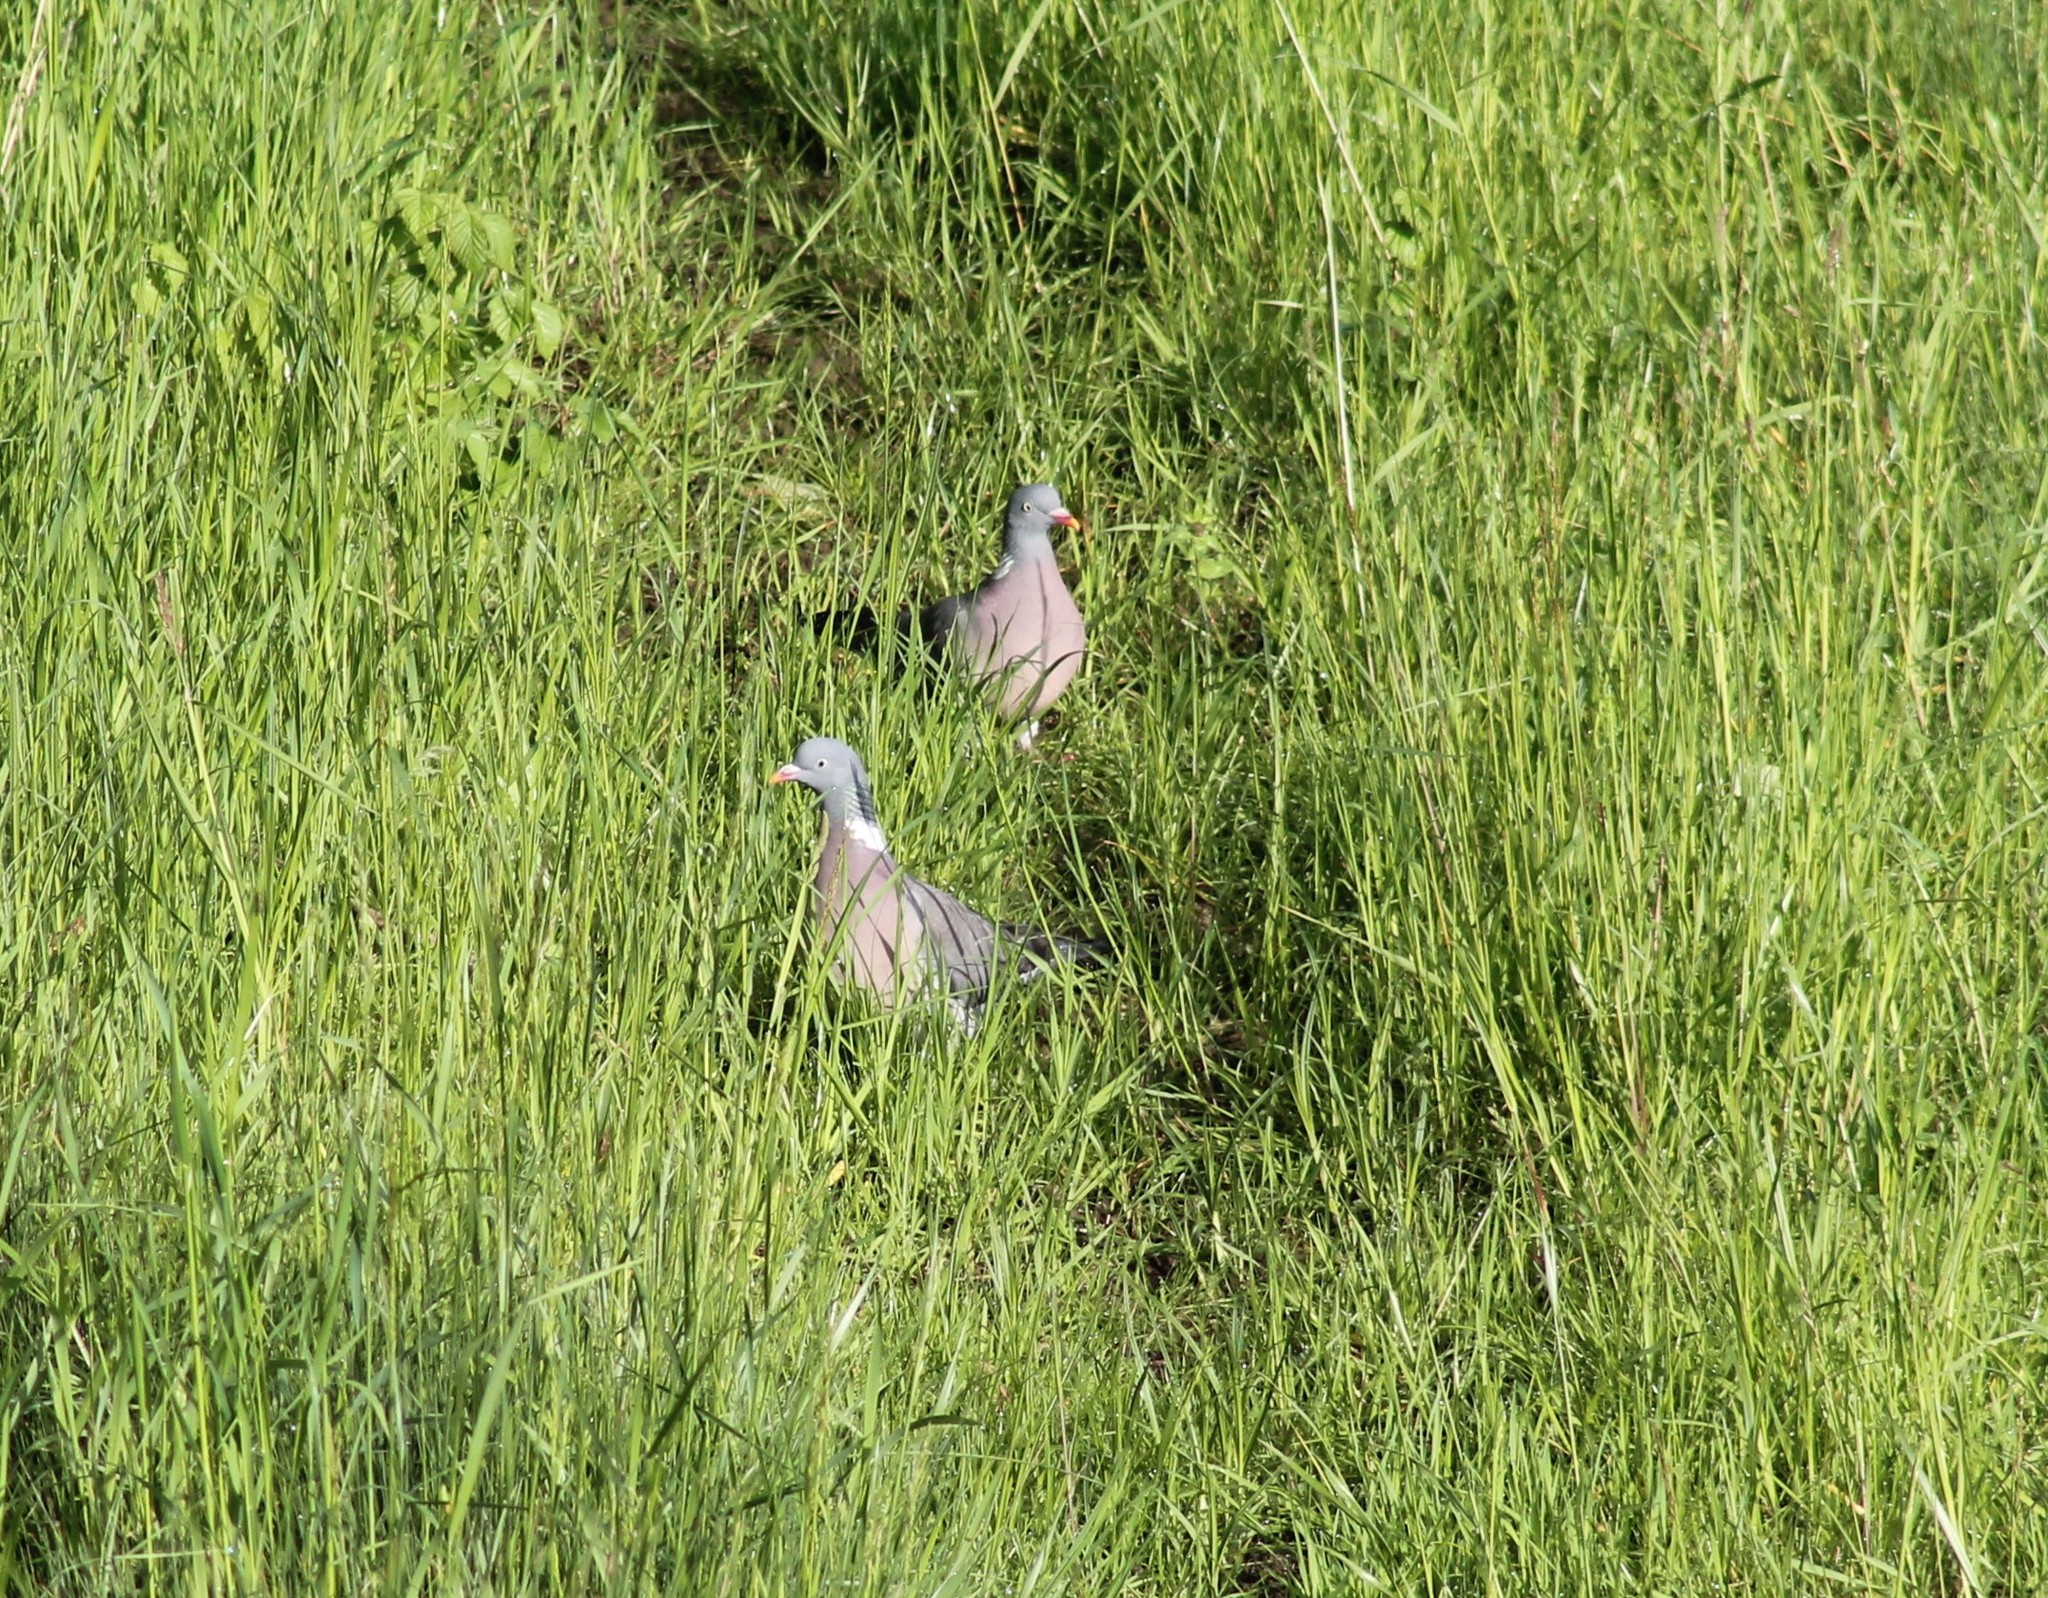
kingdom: Animalia
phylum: Chordata
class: Aves
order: Columbiformes
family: Columbidae
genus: Columba
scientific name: Columba palumbus
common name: Common wood pigeon
